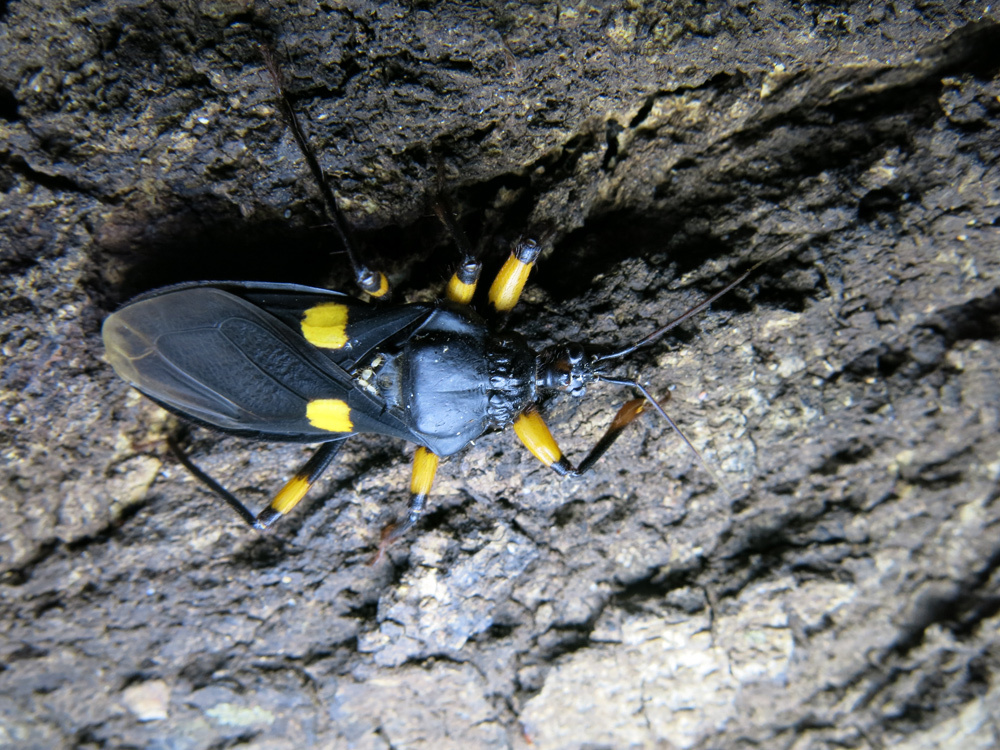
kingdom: Animalia
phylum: Arthropoda
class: Insecta
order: Hemiptera
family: Reduviidae
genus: Platymeris
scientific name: Platymeris guttatipennis
